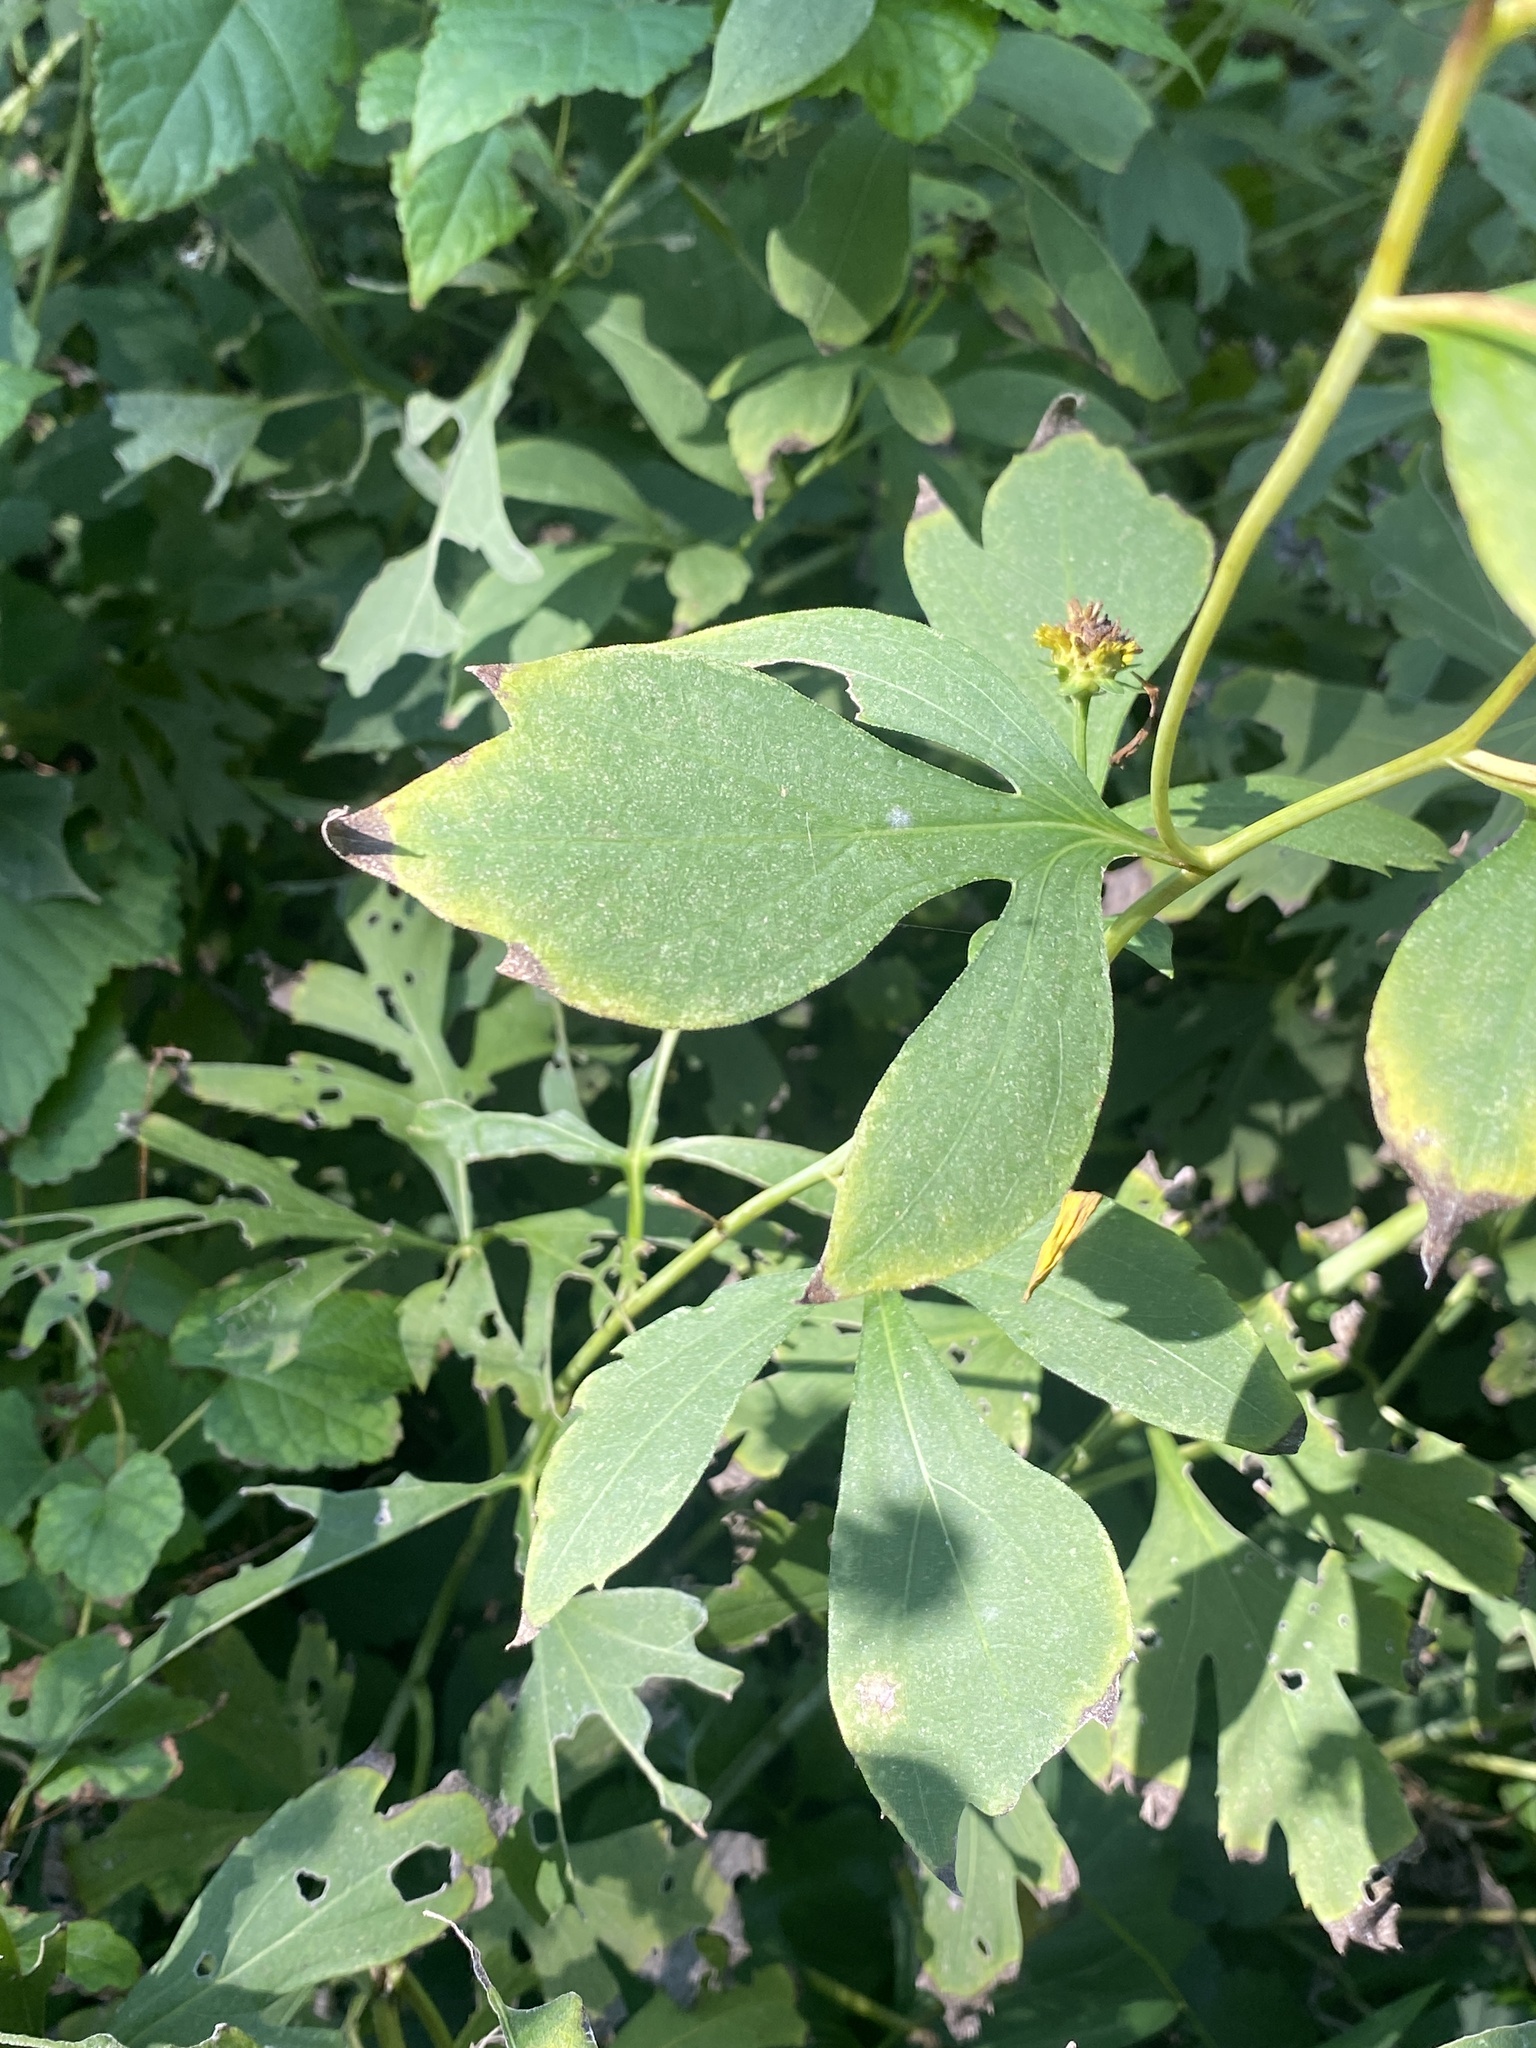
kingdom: Plantae
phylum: Tracheophyta
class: Magnoliopsida
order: Asterales
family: Asteraceae
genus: Rudbeckia
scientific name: Rudbeckia laciniata
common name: Coneflower
